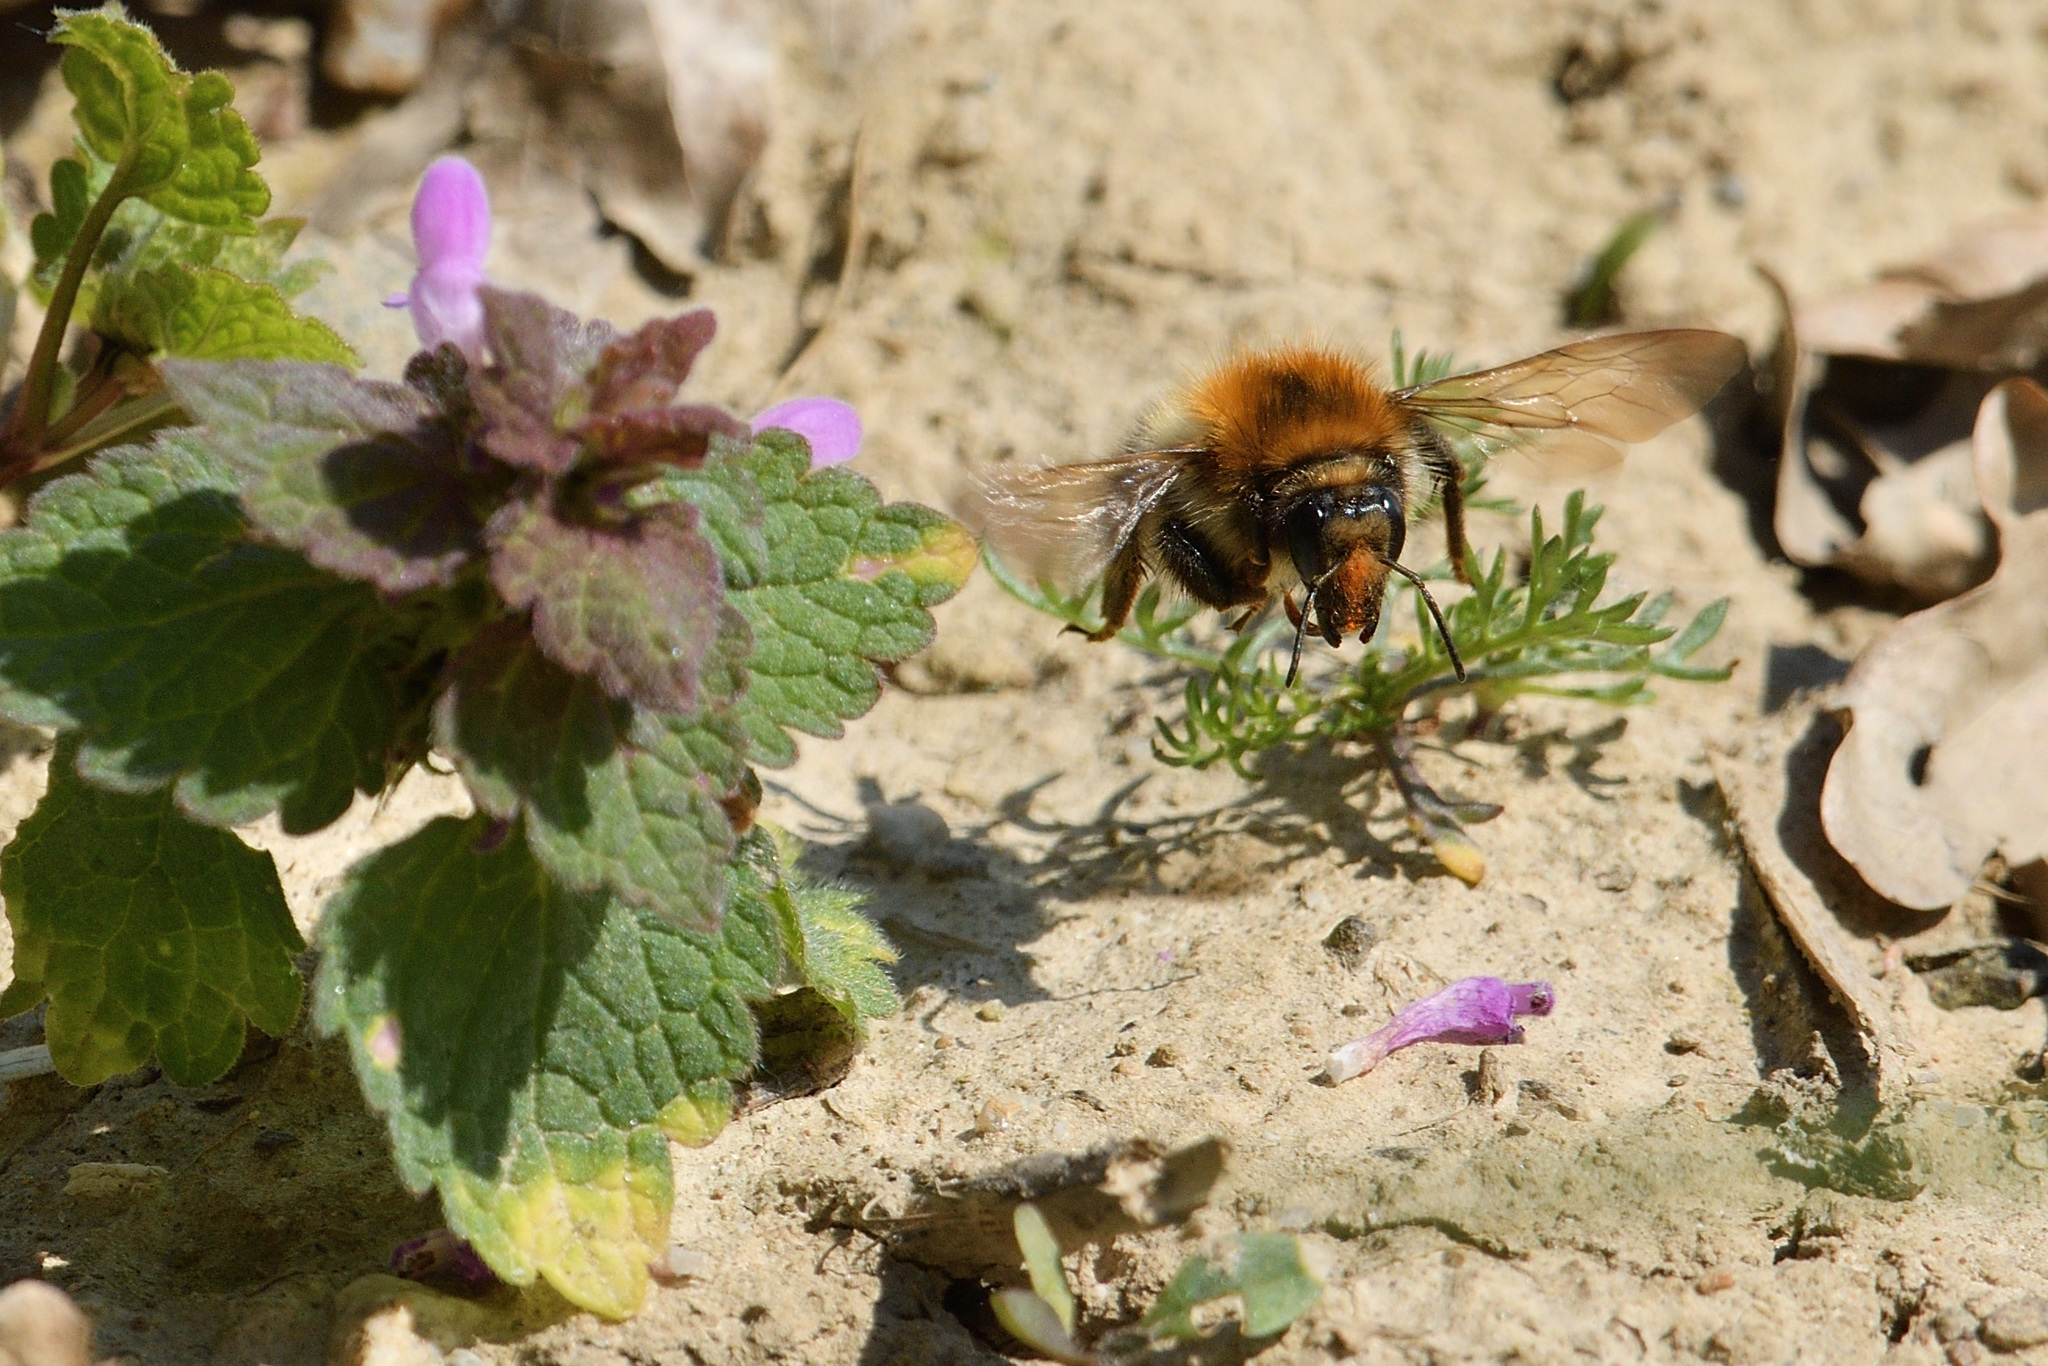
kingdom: Animalia
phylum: Arthropoda
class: Insecta
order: Hymenoptera
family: Apidae
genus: Bombus
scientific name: Bombus pascuorum
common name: Common carder bee
